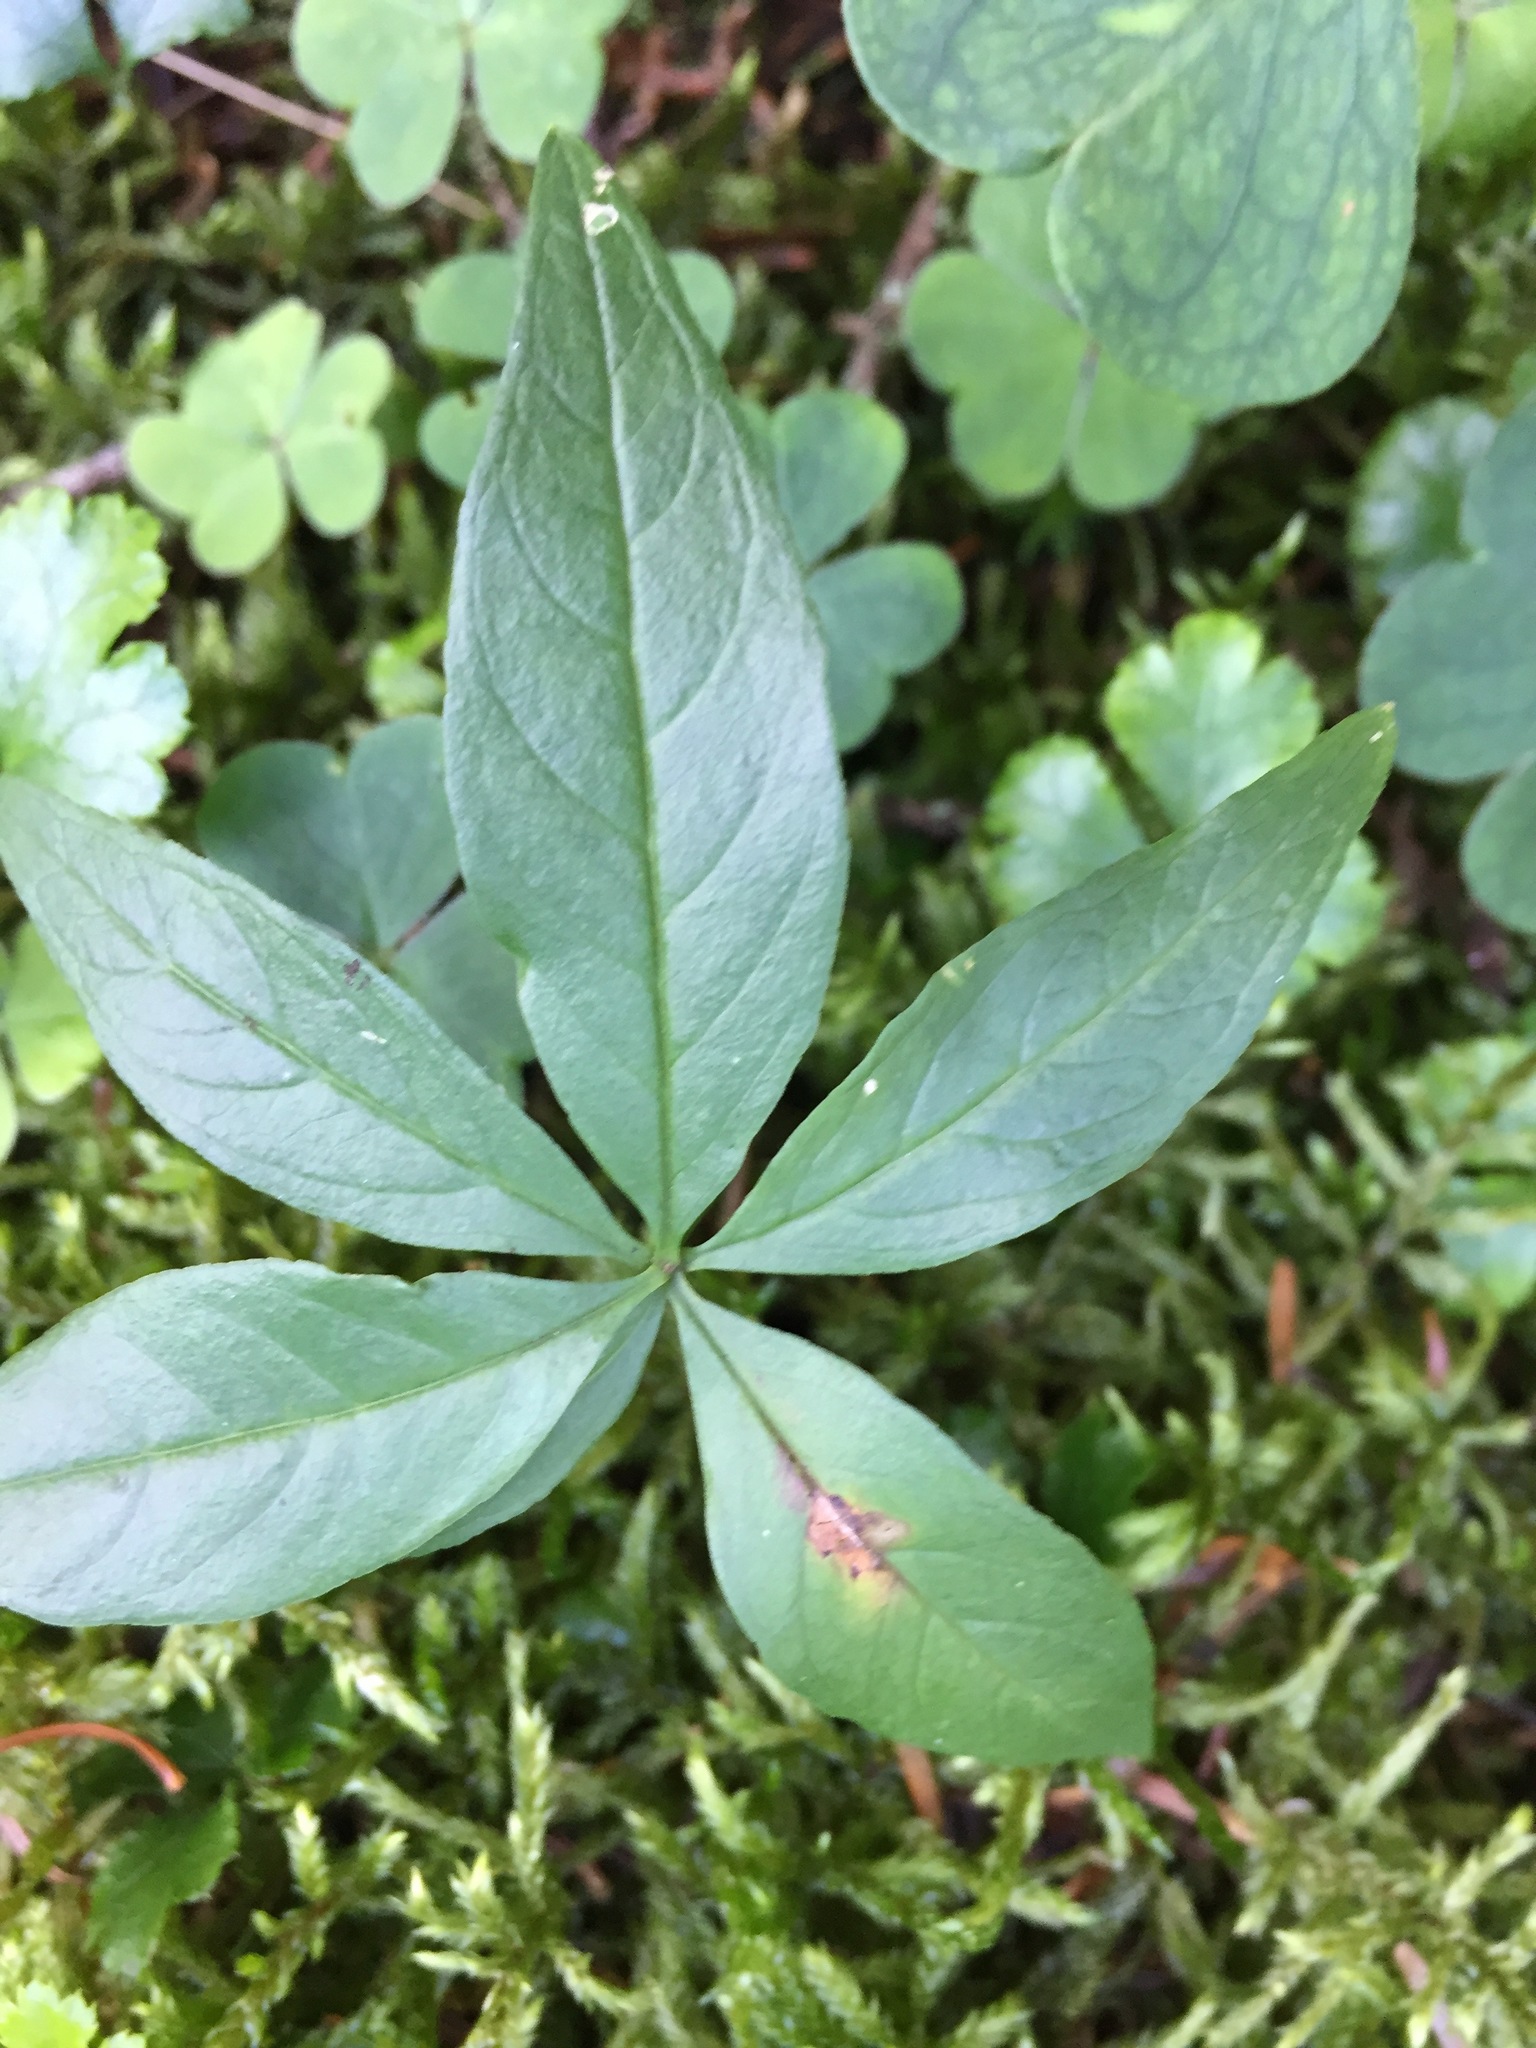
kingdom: Plantae
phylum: Tracheophyta
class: Magnoliopsida
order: Ericales
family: Primulaceae
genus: Lysimachia
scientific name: Lysimachia borealis
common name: American starflower
